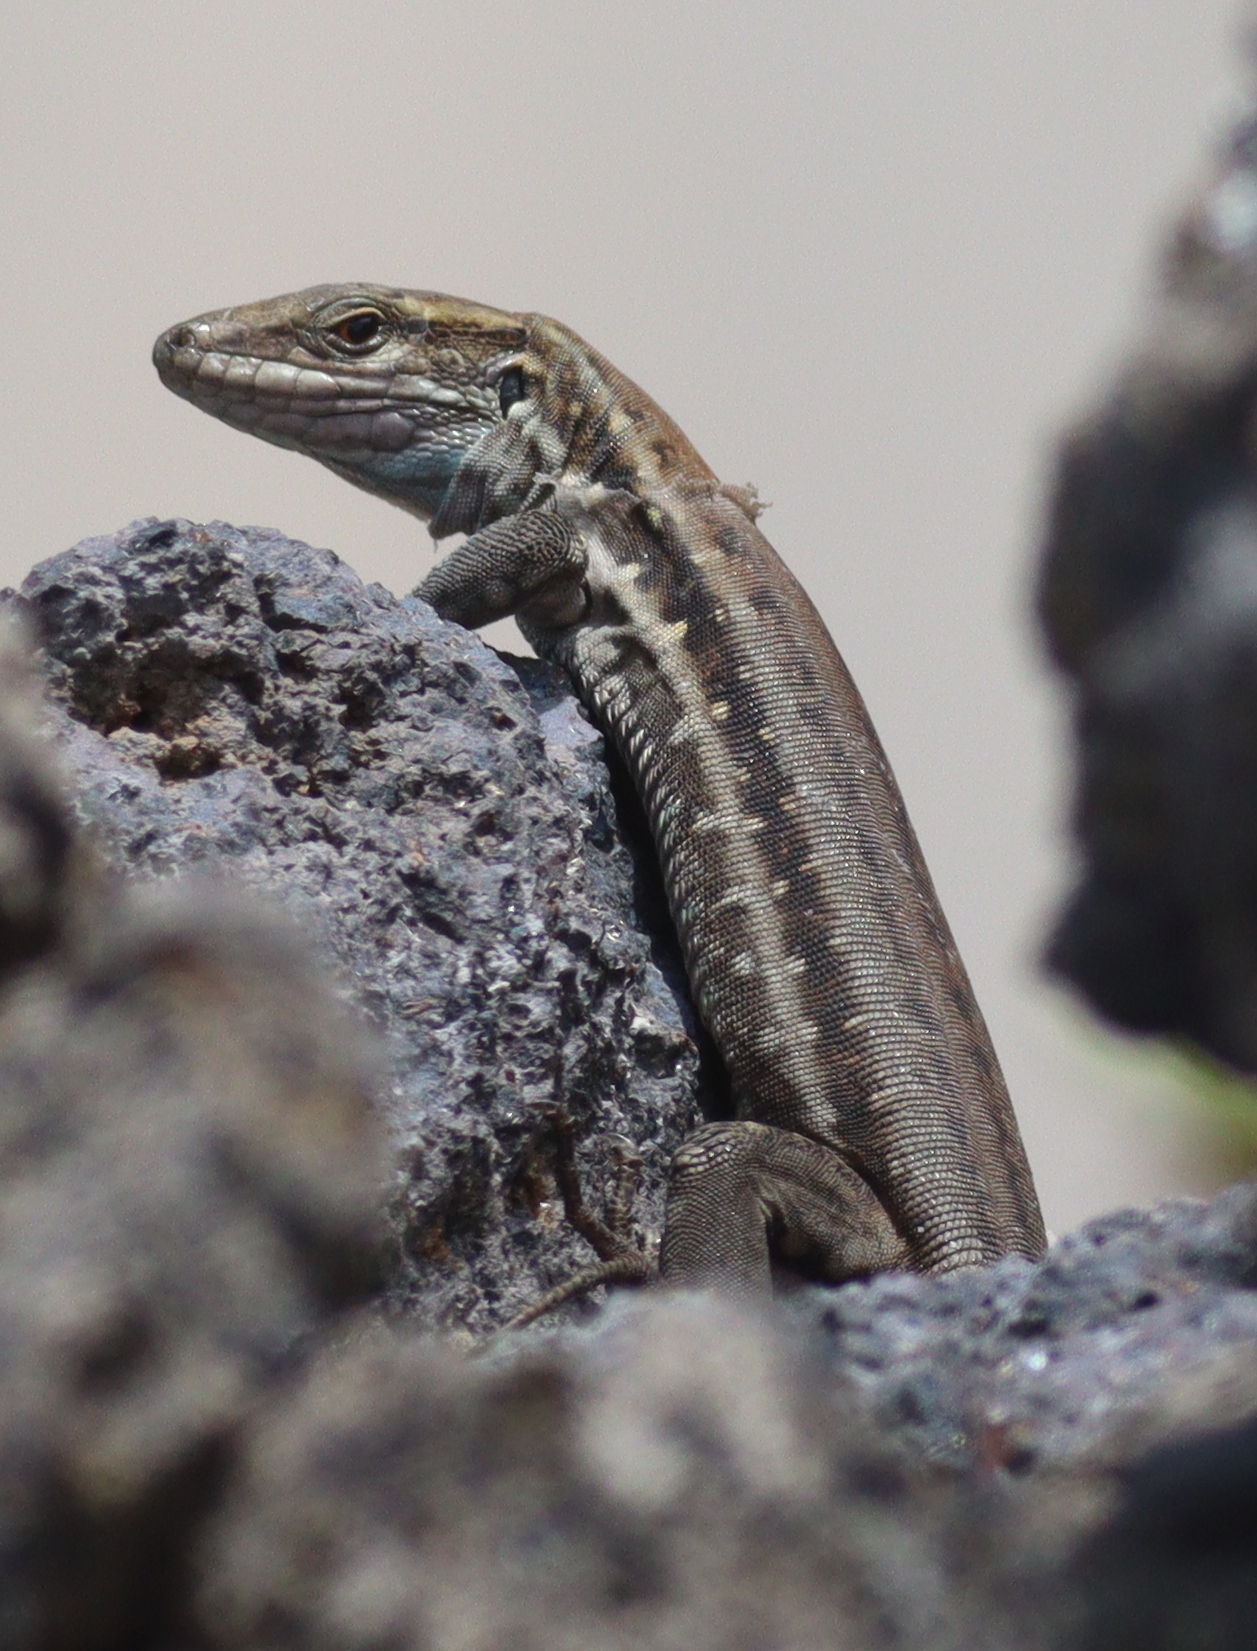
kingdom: Animalia
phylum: Chordata
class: Squamata
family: Lacertidae
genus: Gallotia
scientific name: Gallotia galloti
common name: Gallot's lizard
